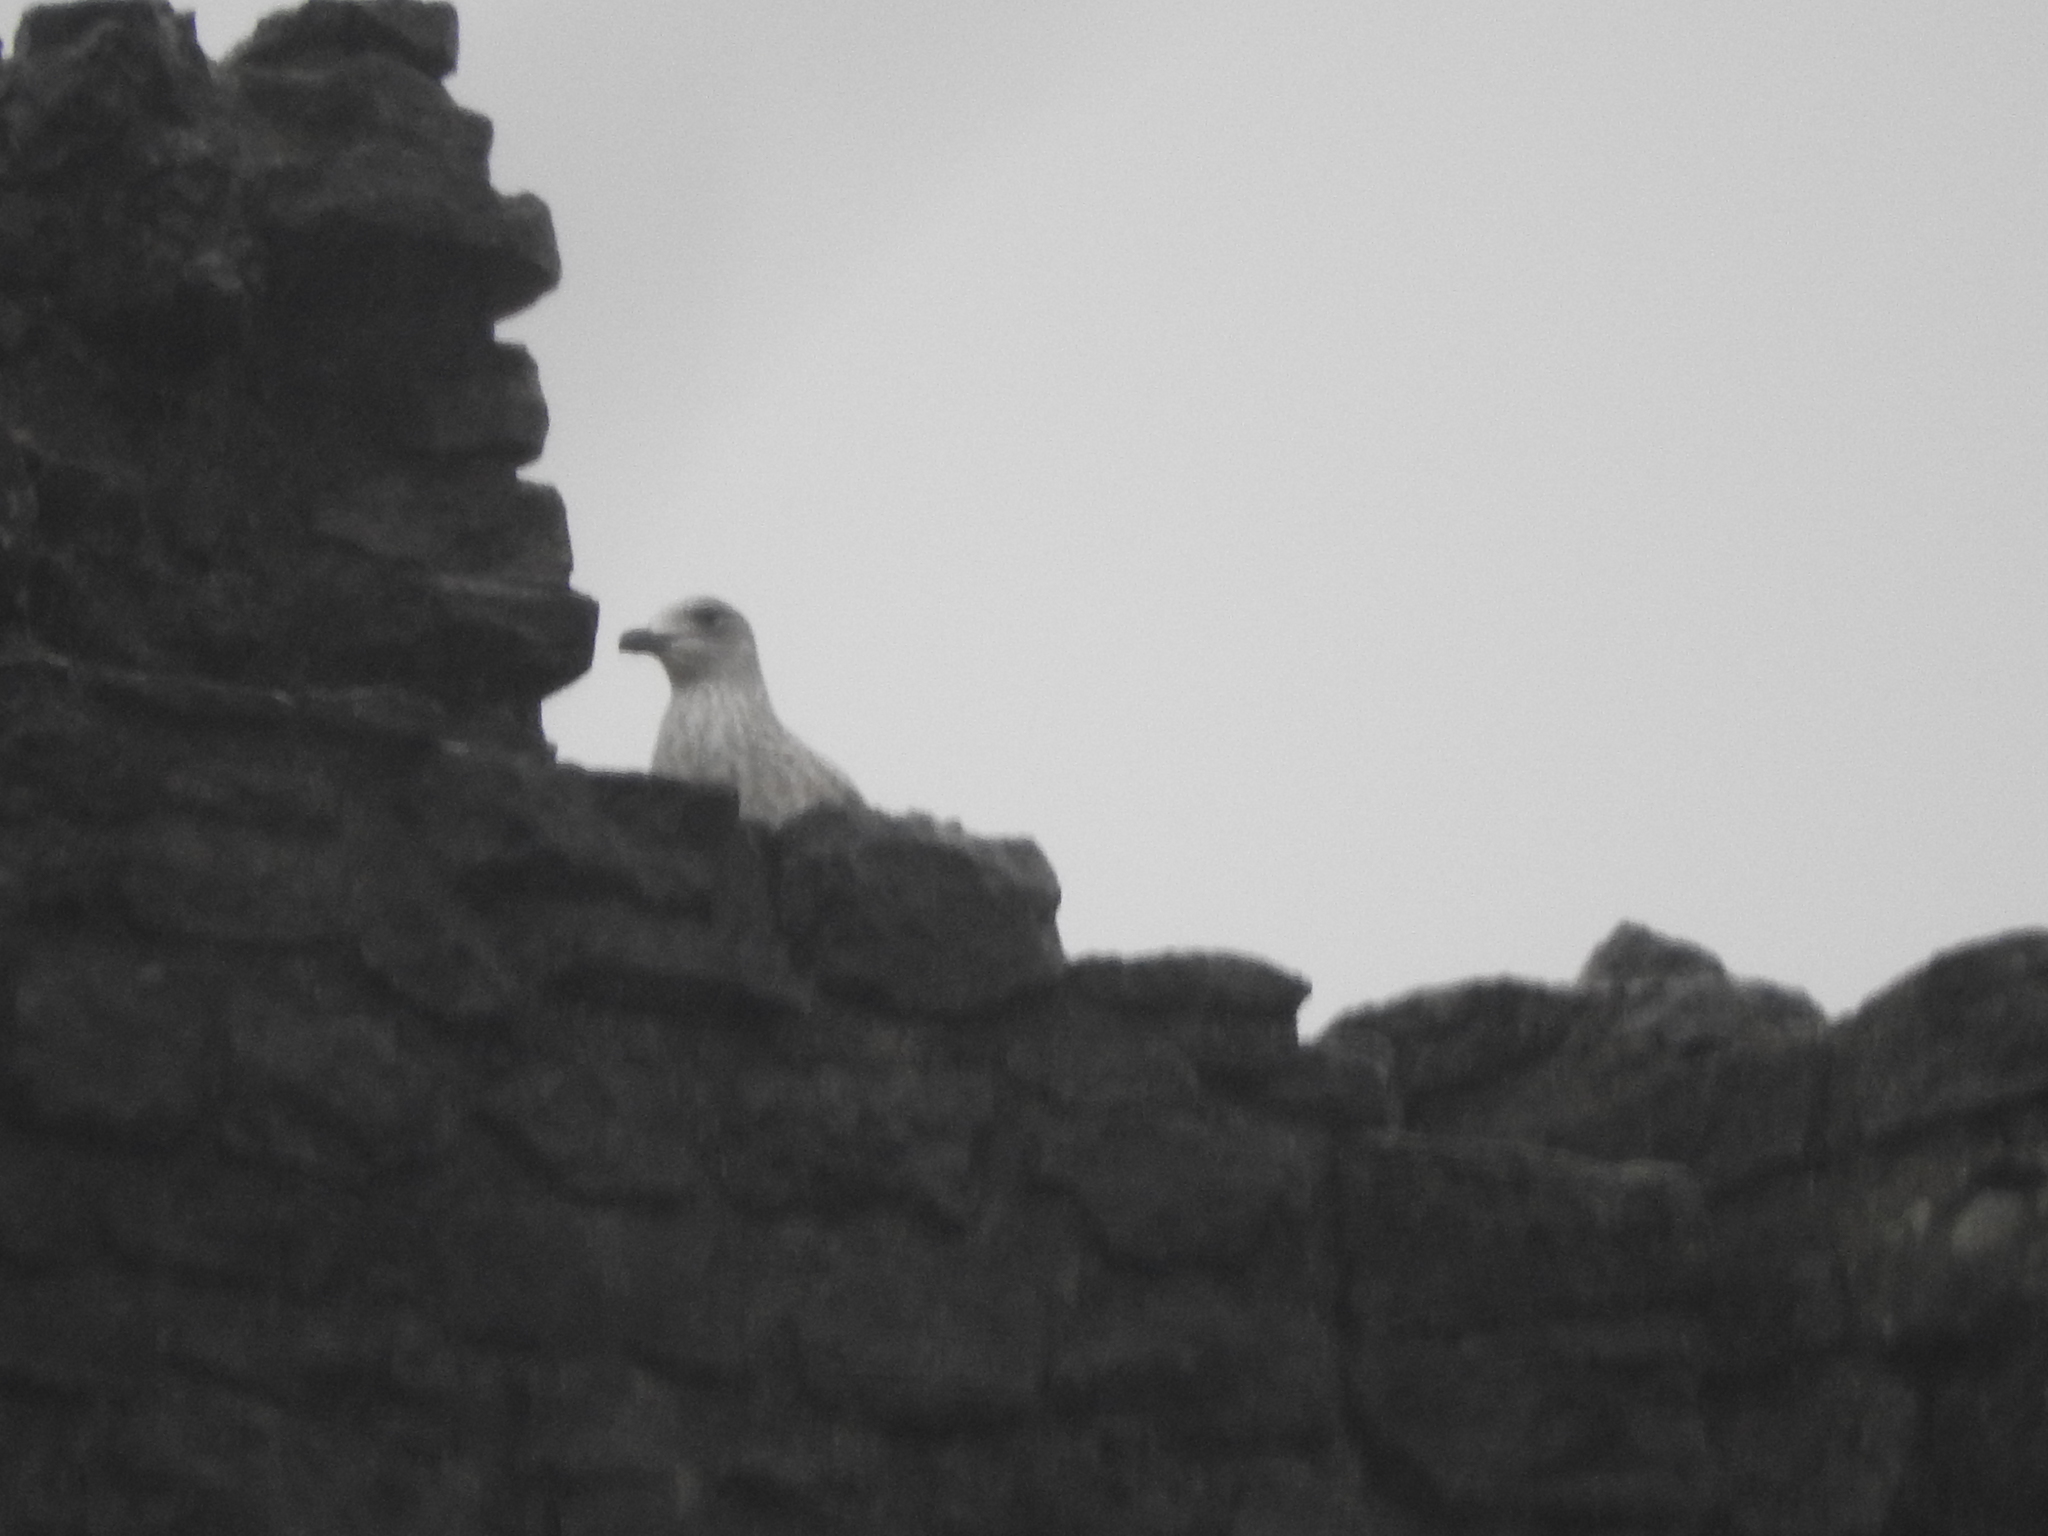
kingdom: Animalia
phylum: Chordata
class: Aves
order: Charadriiformes
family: Laridae
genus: Larus
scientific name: Larus argentatus
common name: Herring gull
